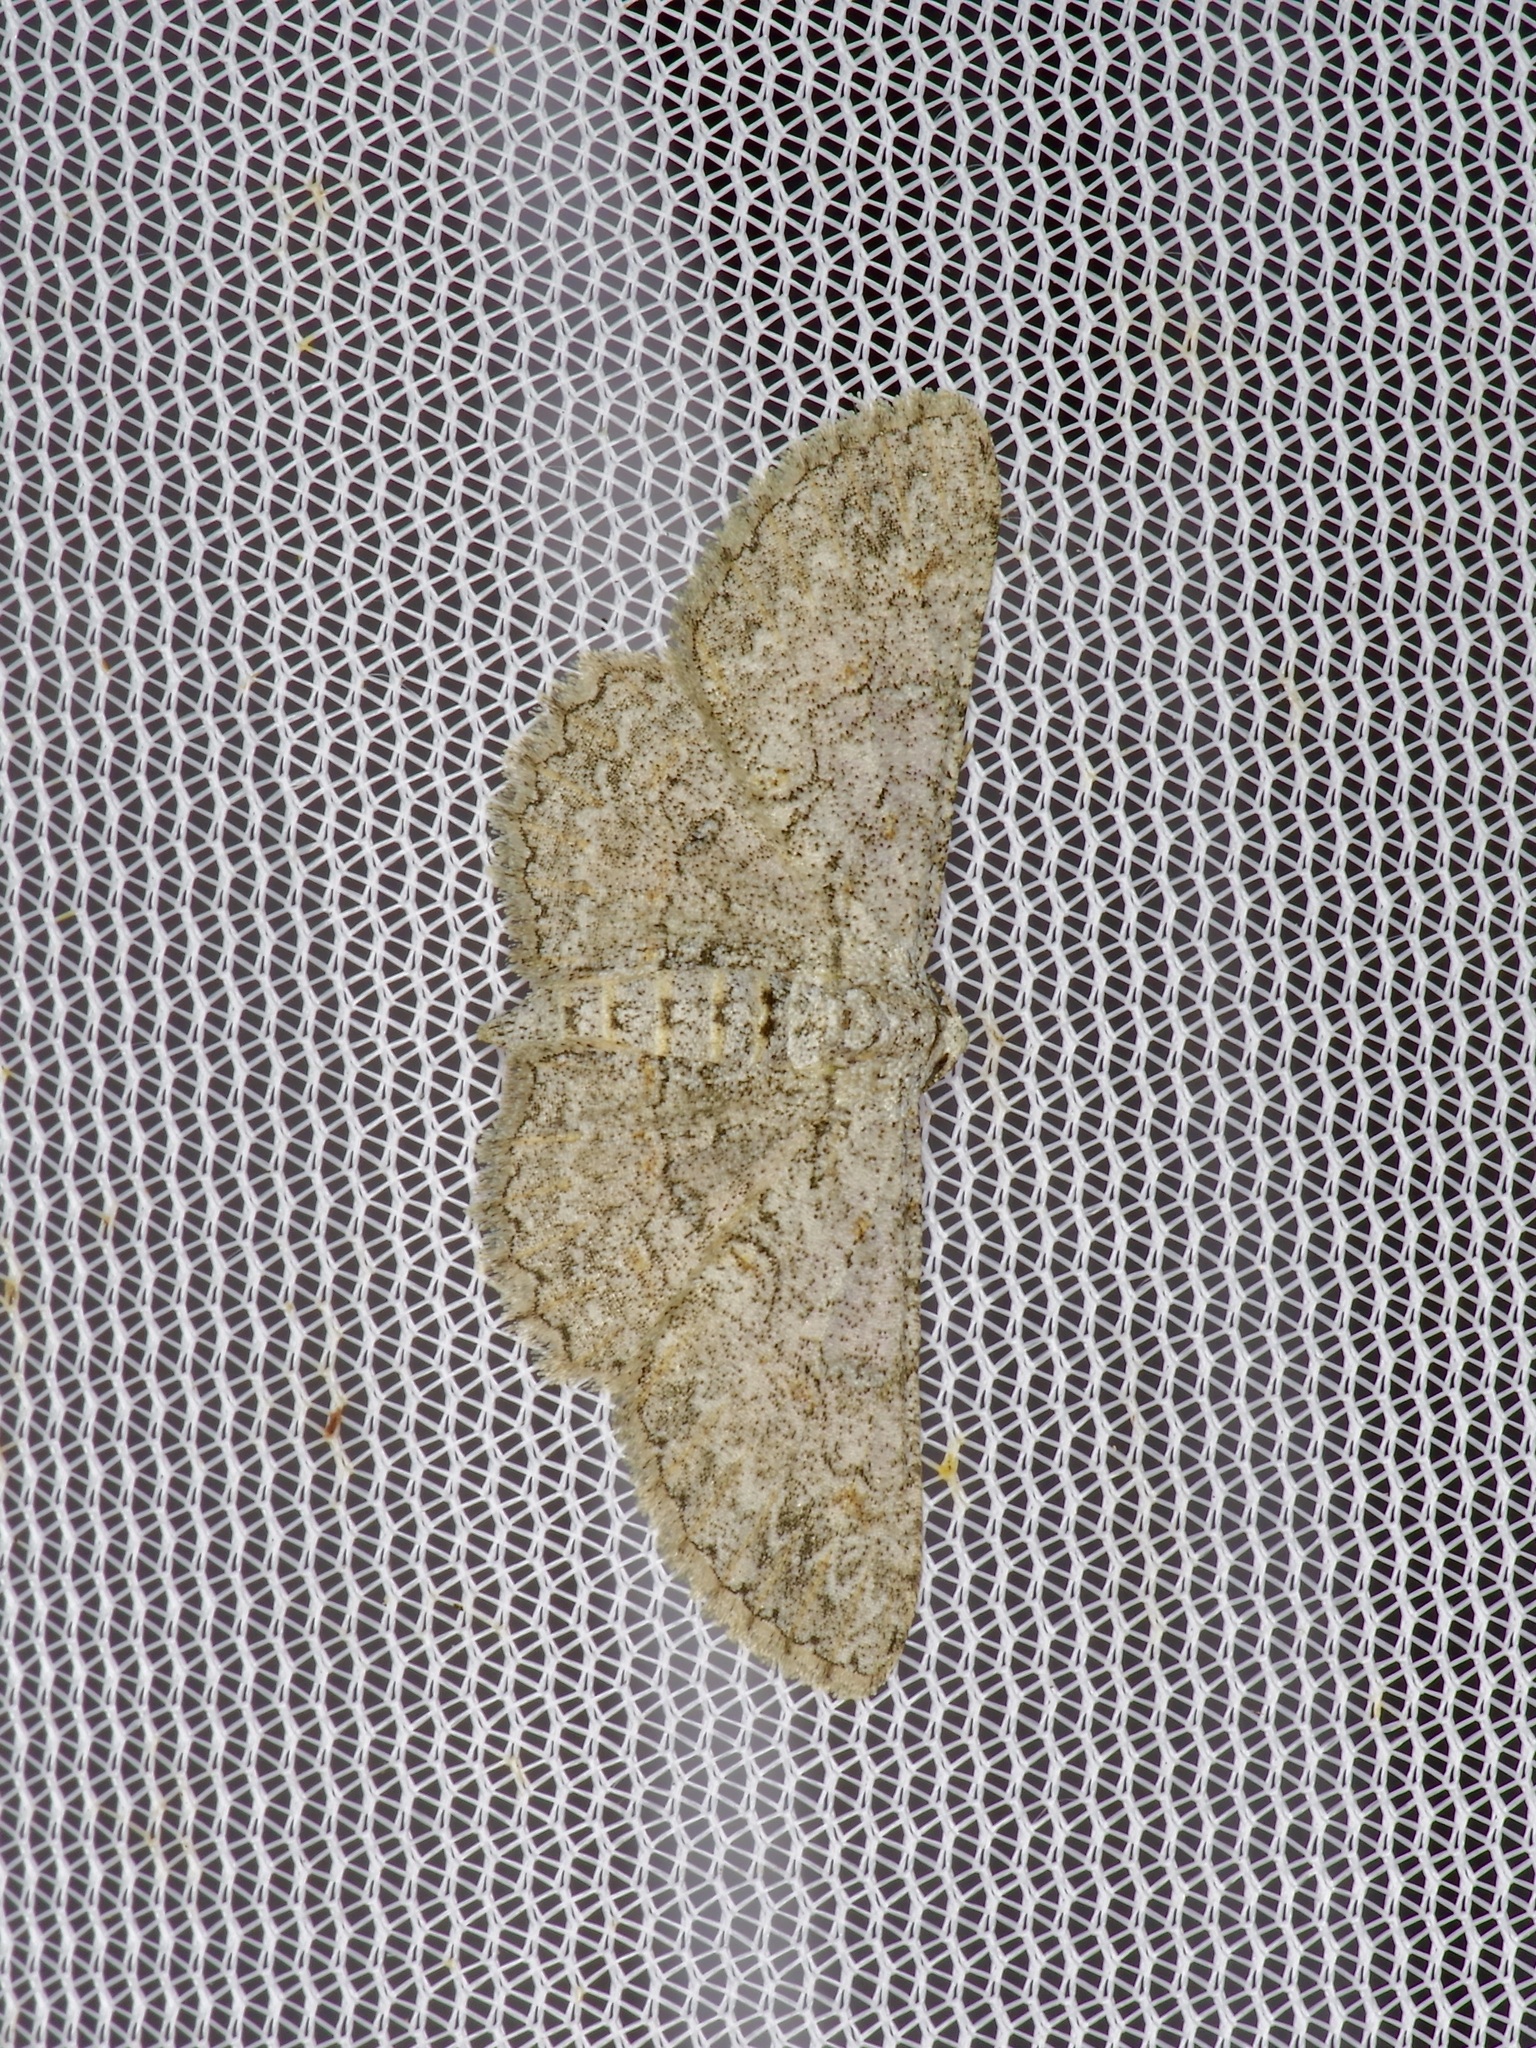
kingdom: Animalia
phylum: Arthropoda
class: Insecta
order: Lepidoptera
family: Geometridae
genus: Iridopsis
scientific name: Iridopsis defectaria
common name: Brown-shaded gray
